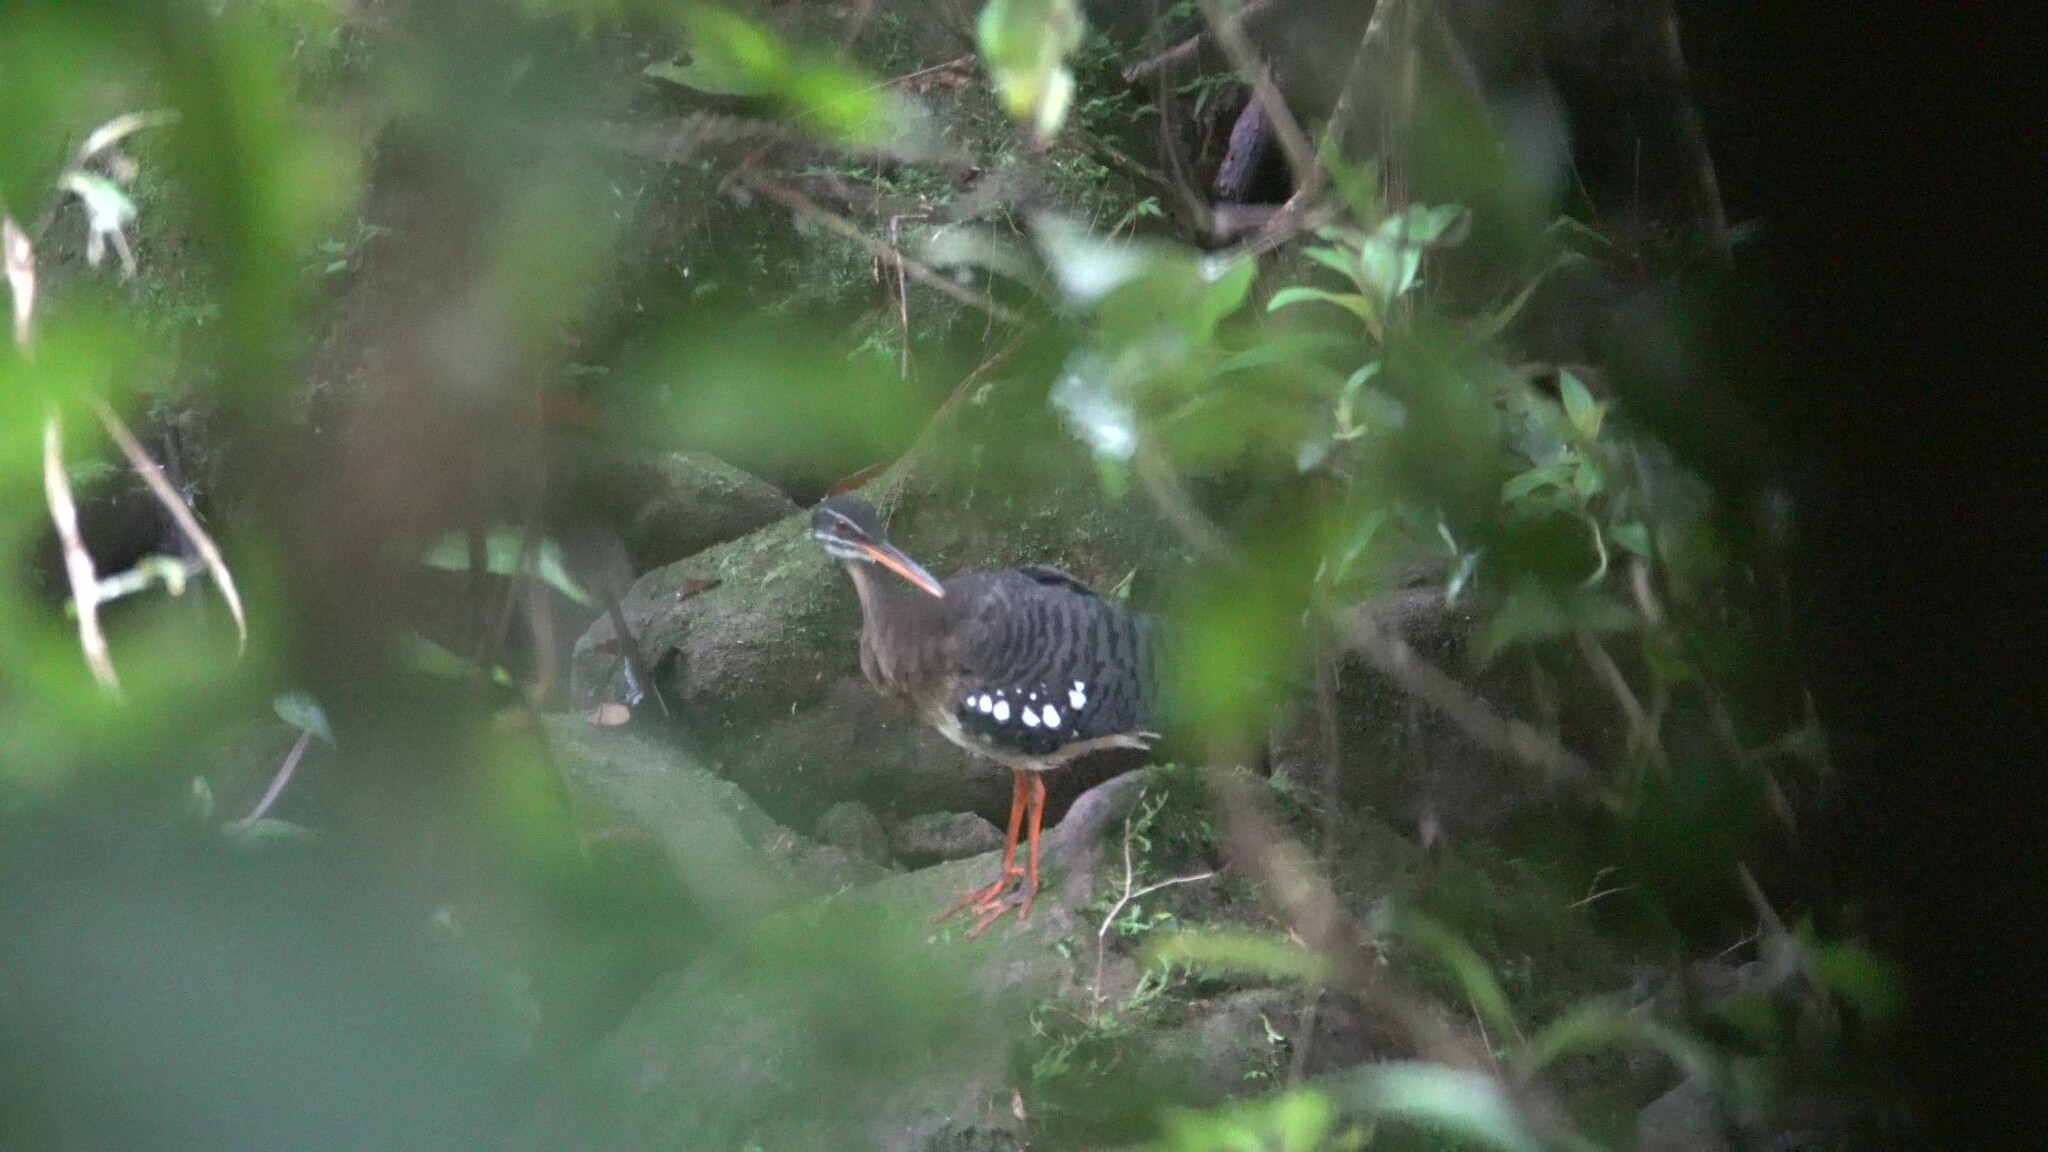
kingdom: Animalia
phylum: Chordata
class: Aves
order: Eurypygiformes
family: Eurypygidae
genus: Eurypyga
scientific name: Eurypyga helias
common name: Sunbittern
